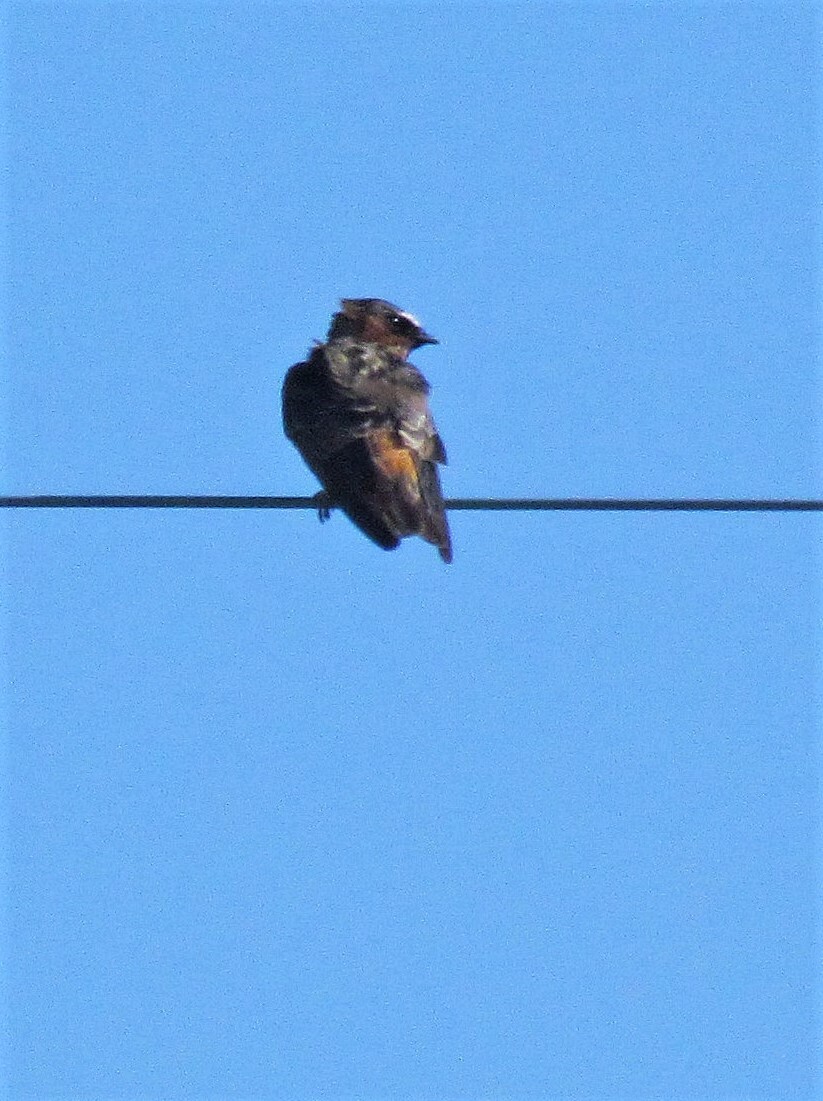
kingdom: Animalia
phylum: Chordata
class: Aves
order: Passeriformes
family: Hirundinidae
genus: Petrochelidon
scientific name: Petrochelidon pyrrhonota
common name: American cliff swallow
